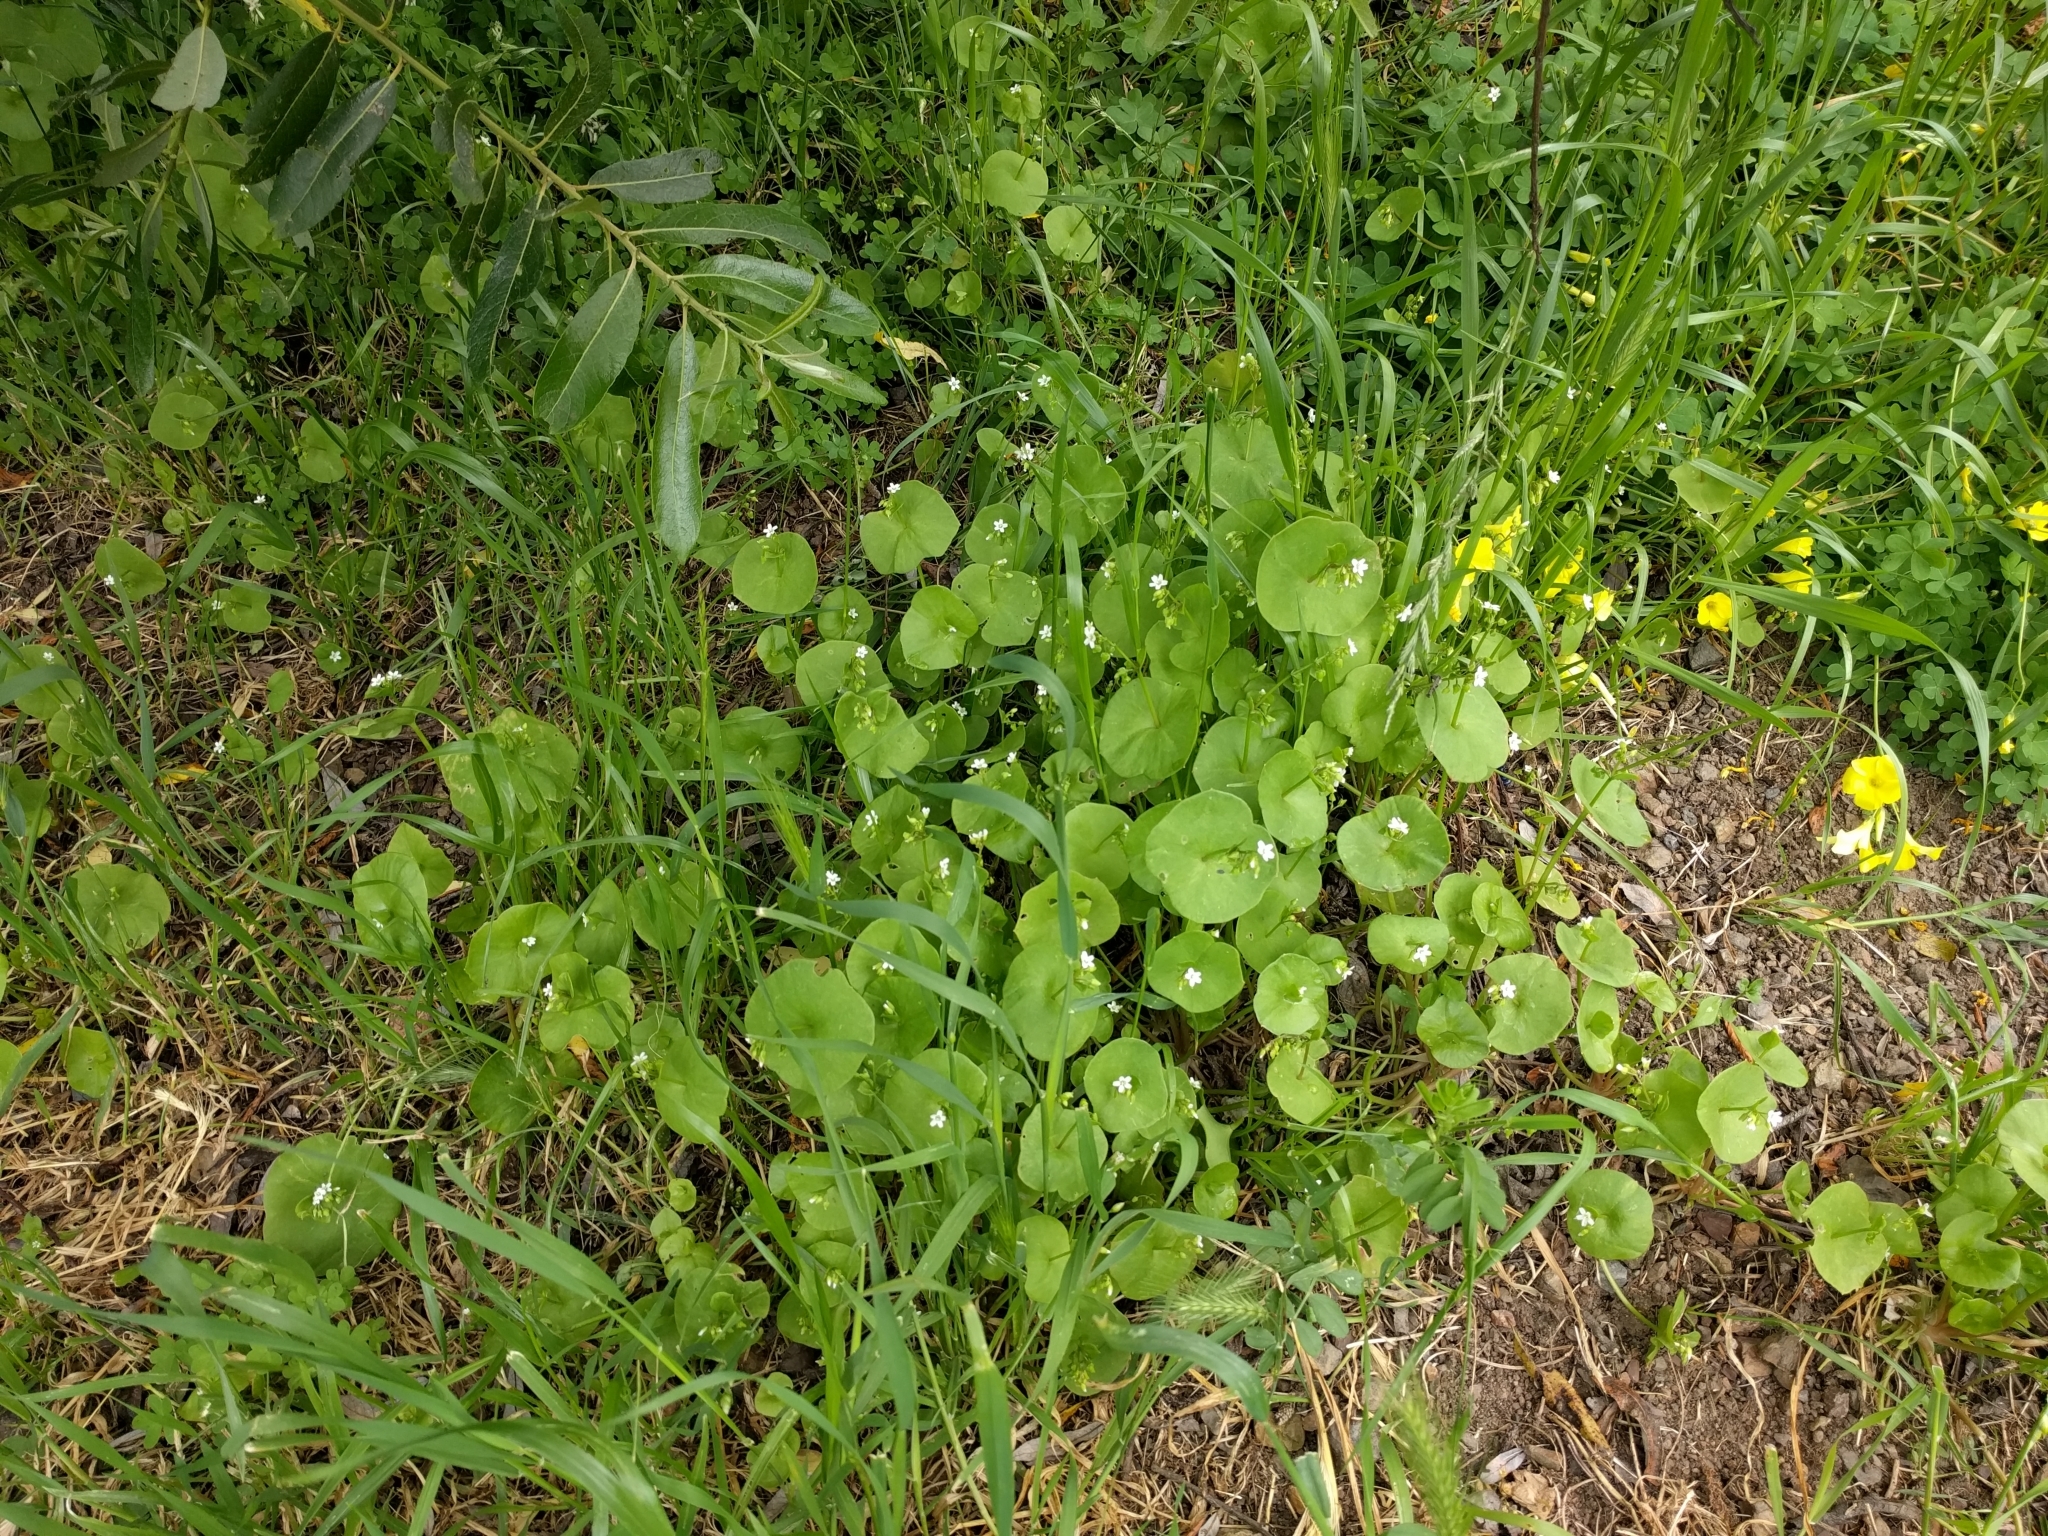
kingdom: Plantae
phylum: Tracheophyta
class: Magnoliopsida
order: Caryophyllales
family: Montiaceae
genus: Claytonia
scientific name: Claytonia perfoliata
